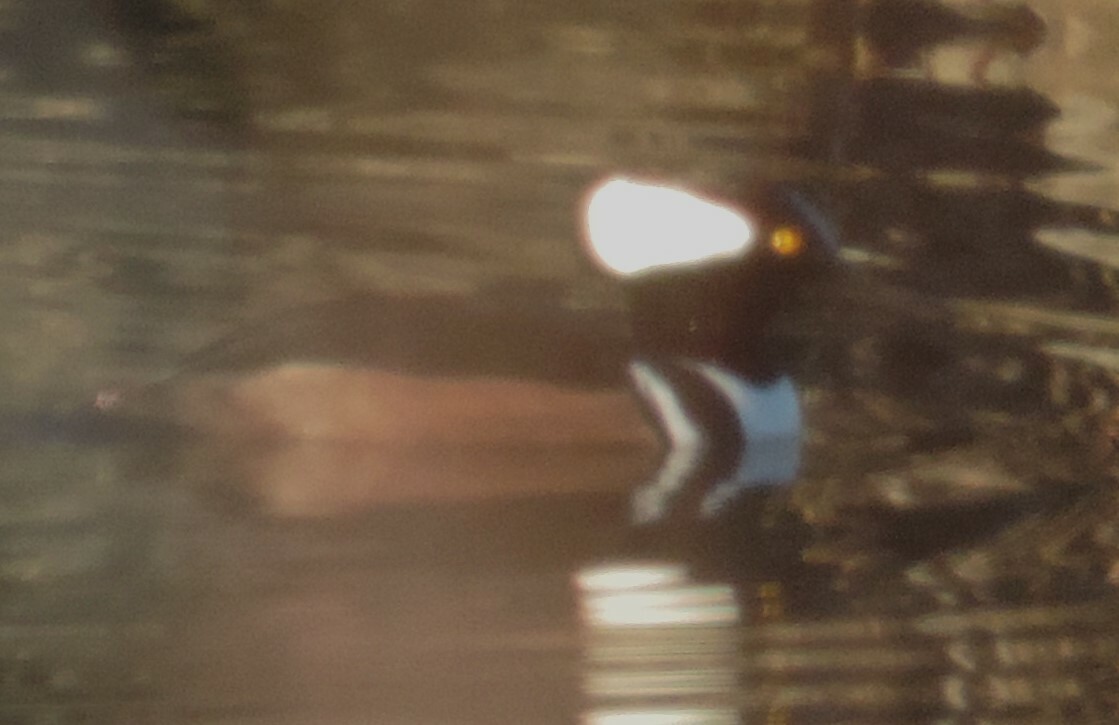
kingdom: Animalia
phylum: Chordata
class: Aves
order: Anseriformes
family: Anatidae
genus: Lophodytes
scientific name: Lophodytes cucullatus
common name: Hooded merganser
